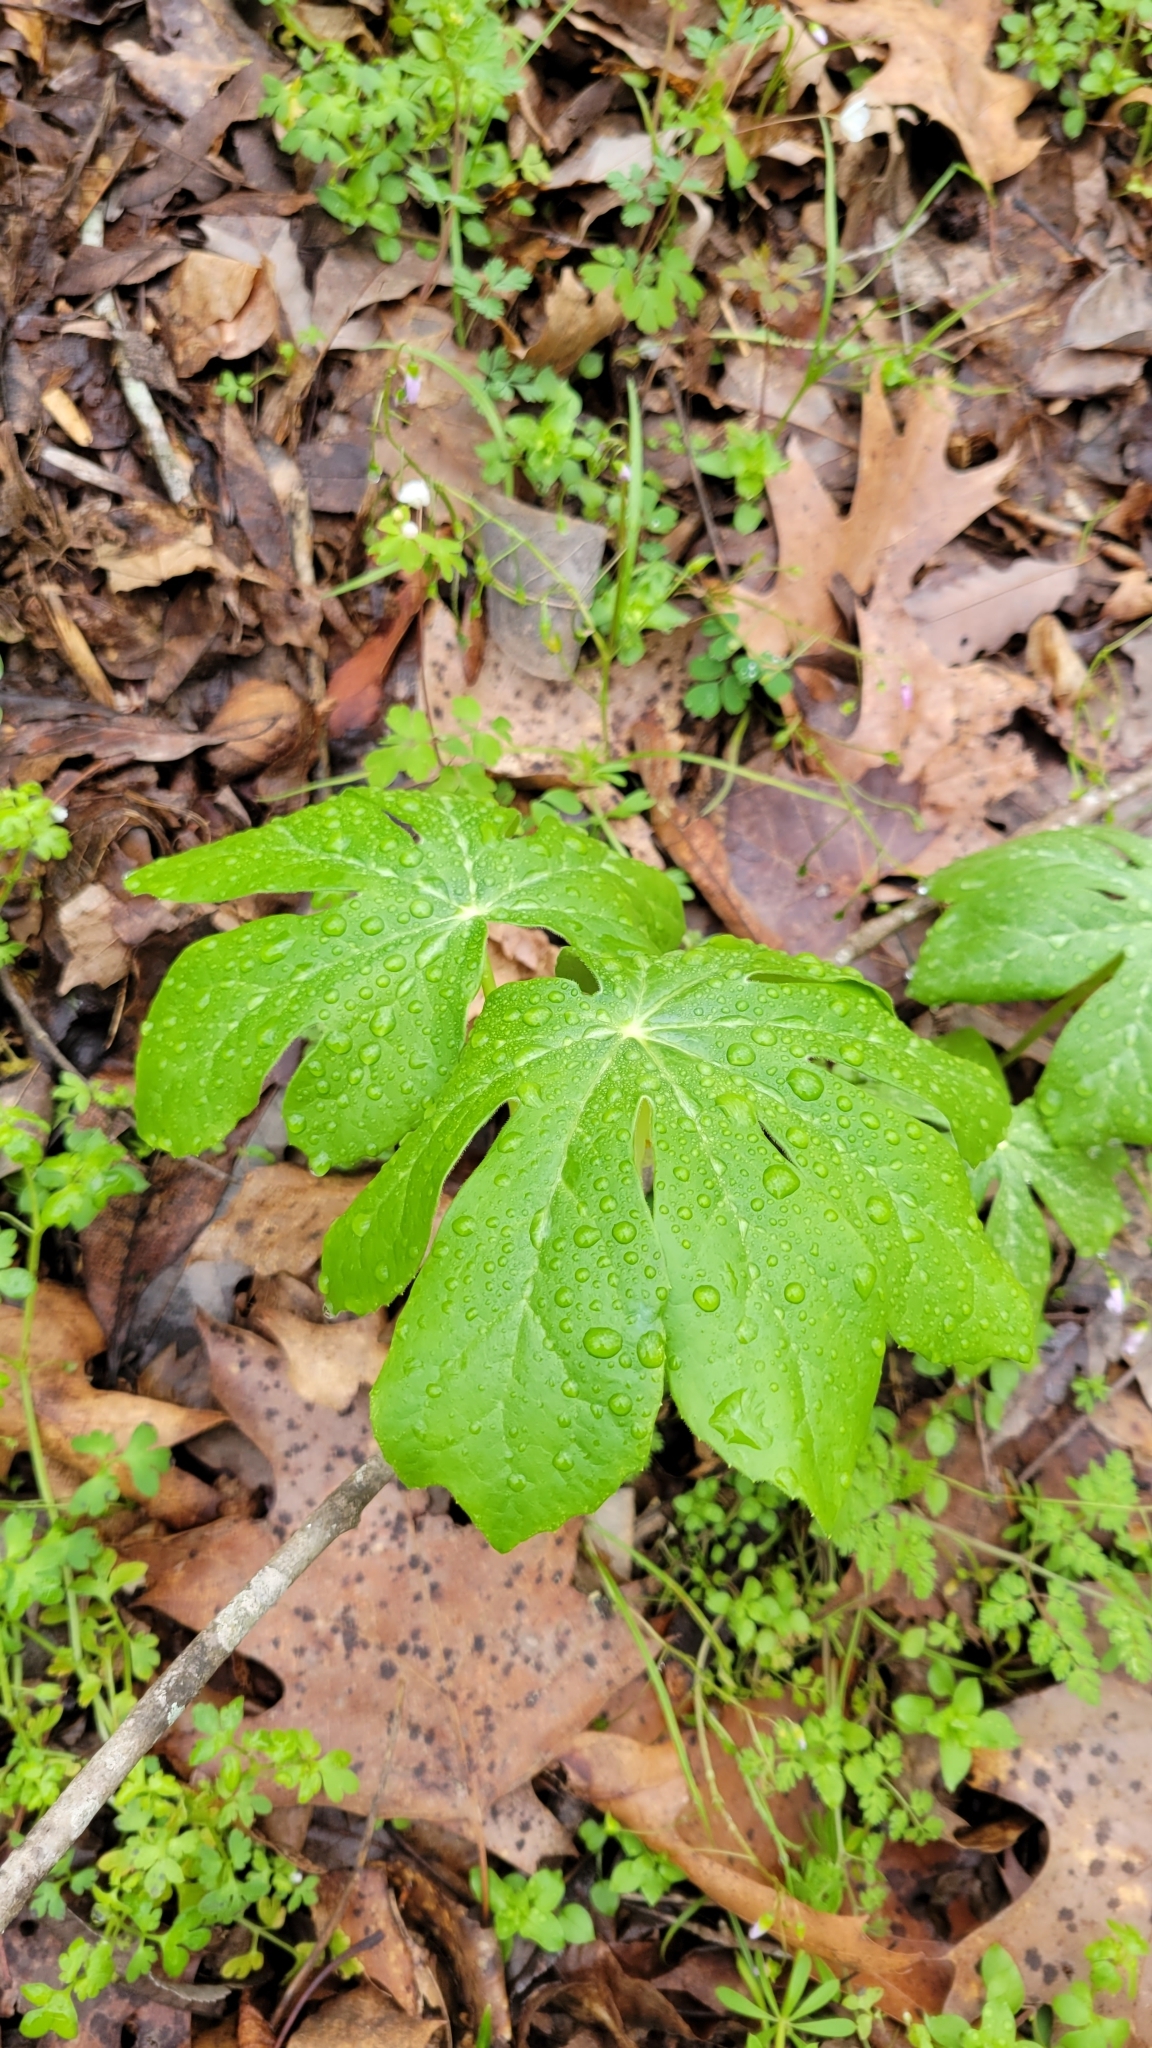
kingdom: Plantae
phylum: Tracheophyta
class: Magnoliopsida
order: Ranunculales
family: Berberidaceae
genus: Podophyllum
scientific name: Podophyllum peltatum
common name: Wild mandrake
